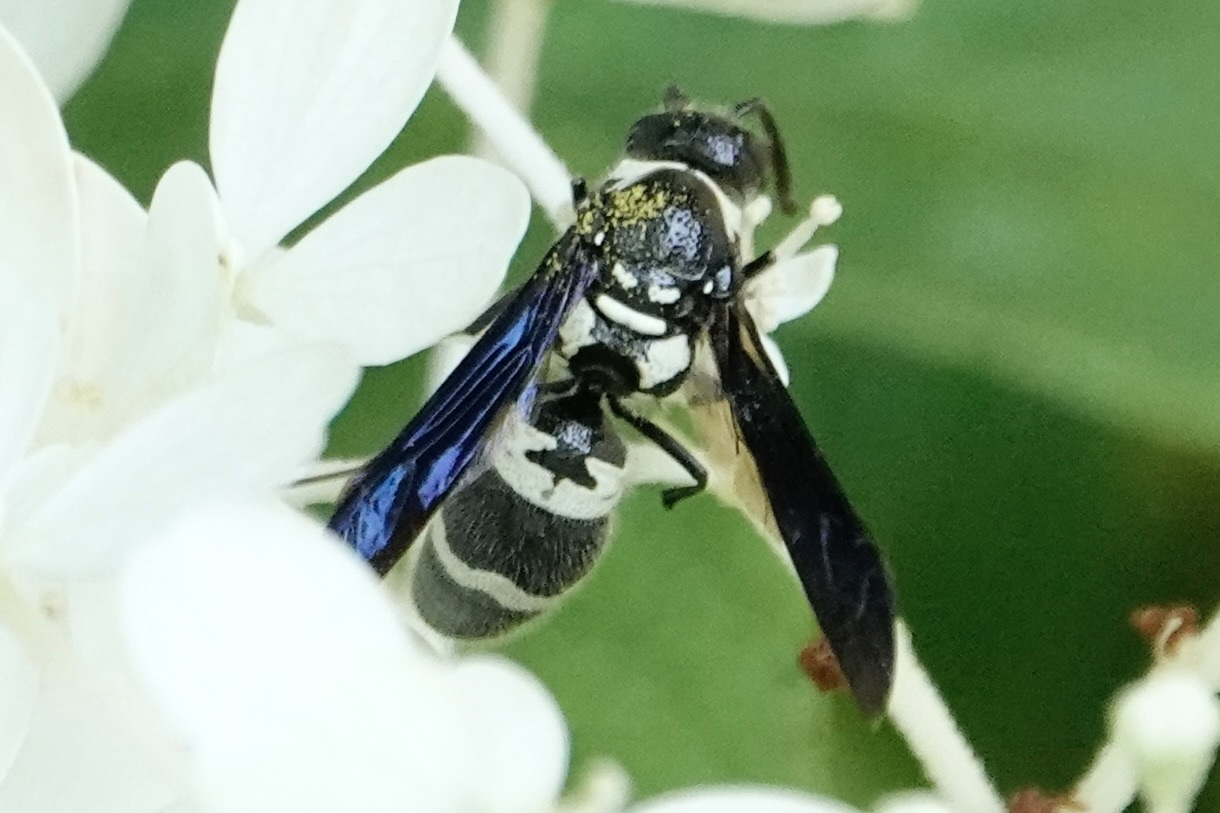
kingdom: Animalia
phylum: Arthropoda
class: Insecta
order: Hymenoptera
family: Eumenidae
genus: Pseudodynerus
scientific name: Pseudodynerus quadrisectus
